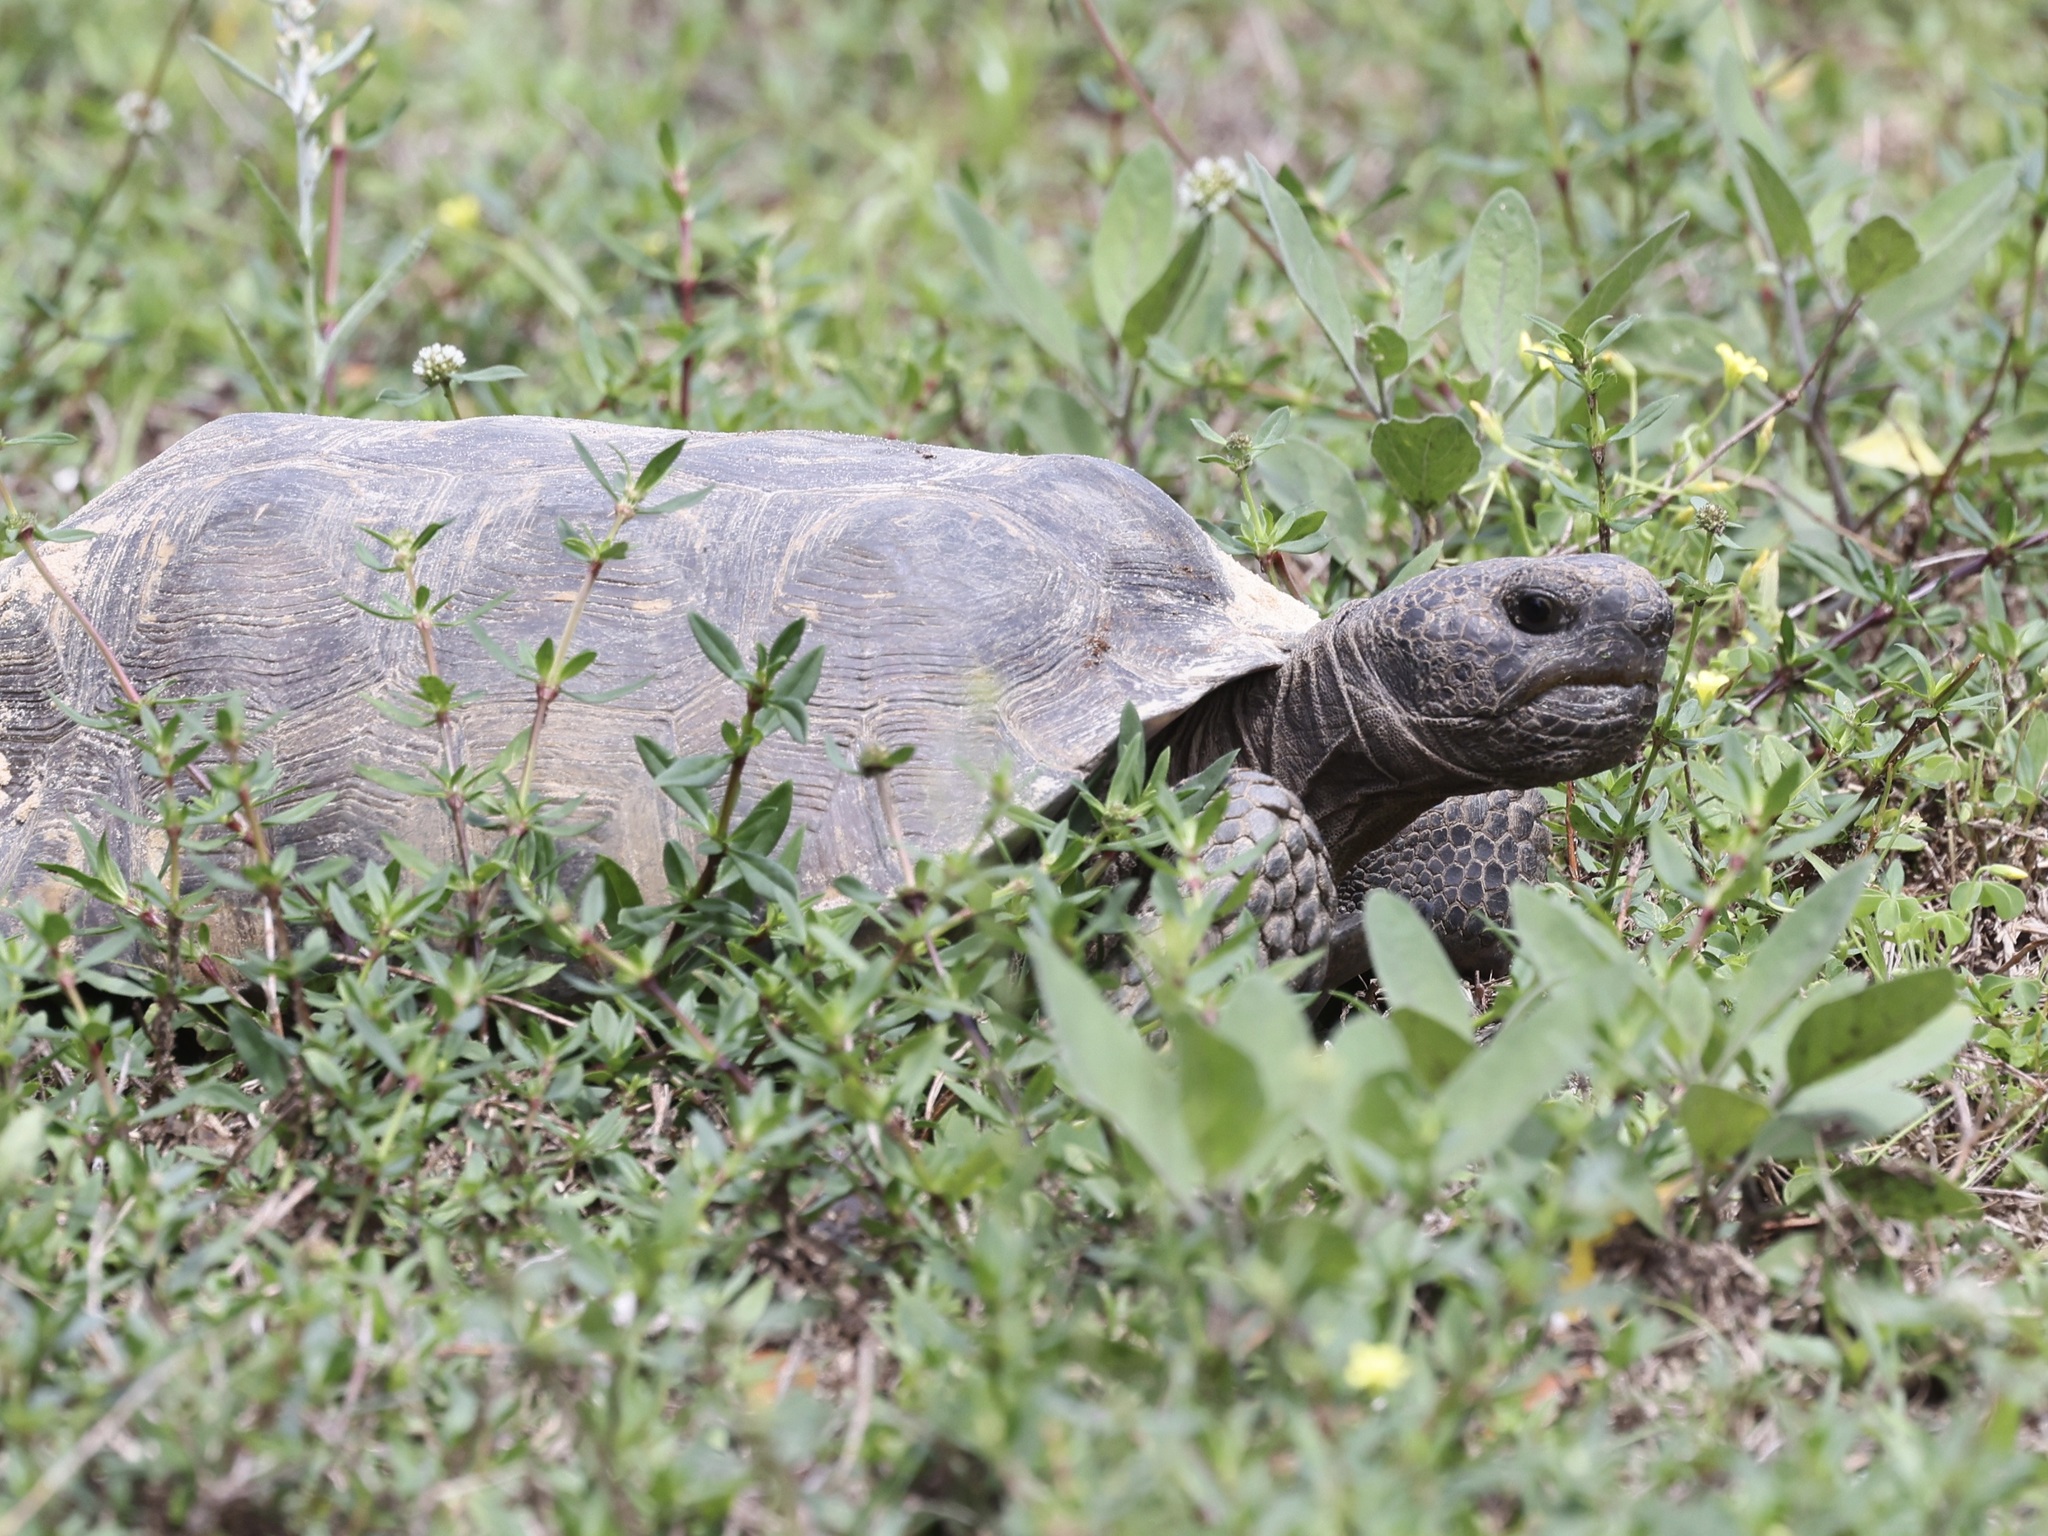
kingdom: Animalia
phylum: Chordata
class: Testudines
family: Testudinidae
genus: Gopherus
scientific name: Gopherus polyphemus
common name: Florida gopher tortoise
